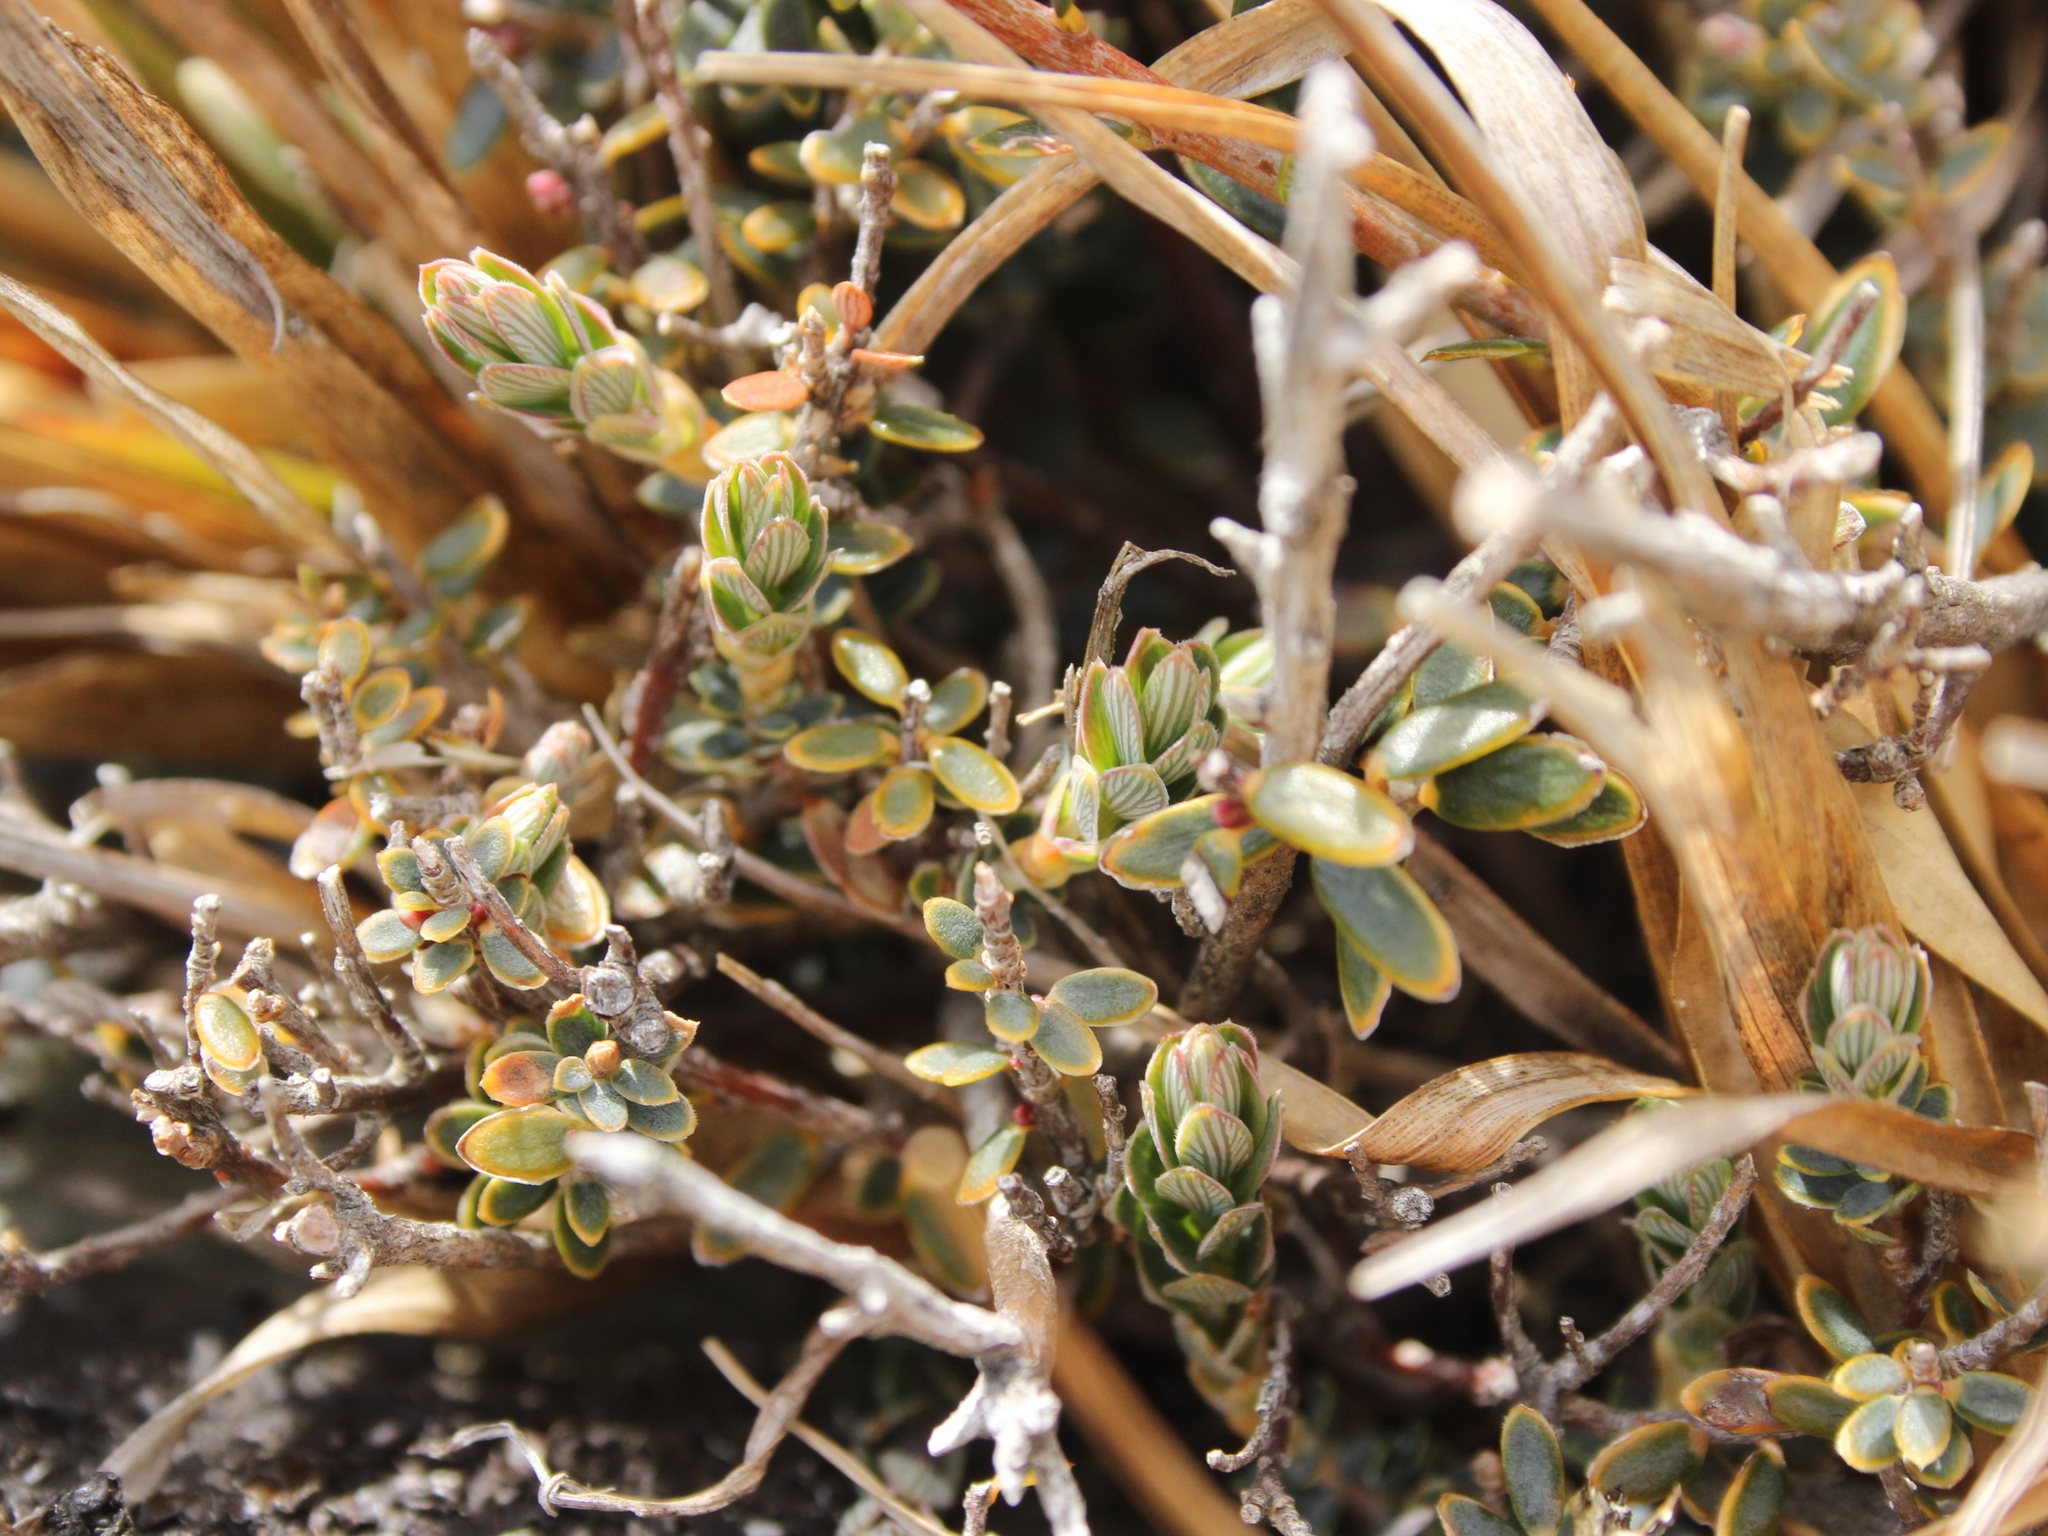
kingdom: Plantae
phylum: Tracheophyta
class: Magnoliopsida
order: Ericales
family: Ericaceae
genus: Acrothamnus
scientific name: Acrothamnus colensoi
